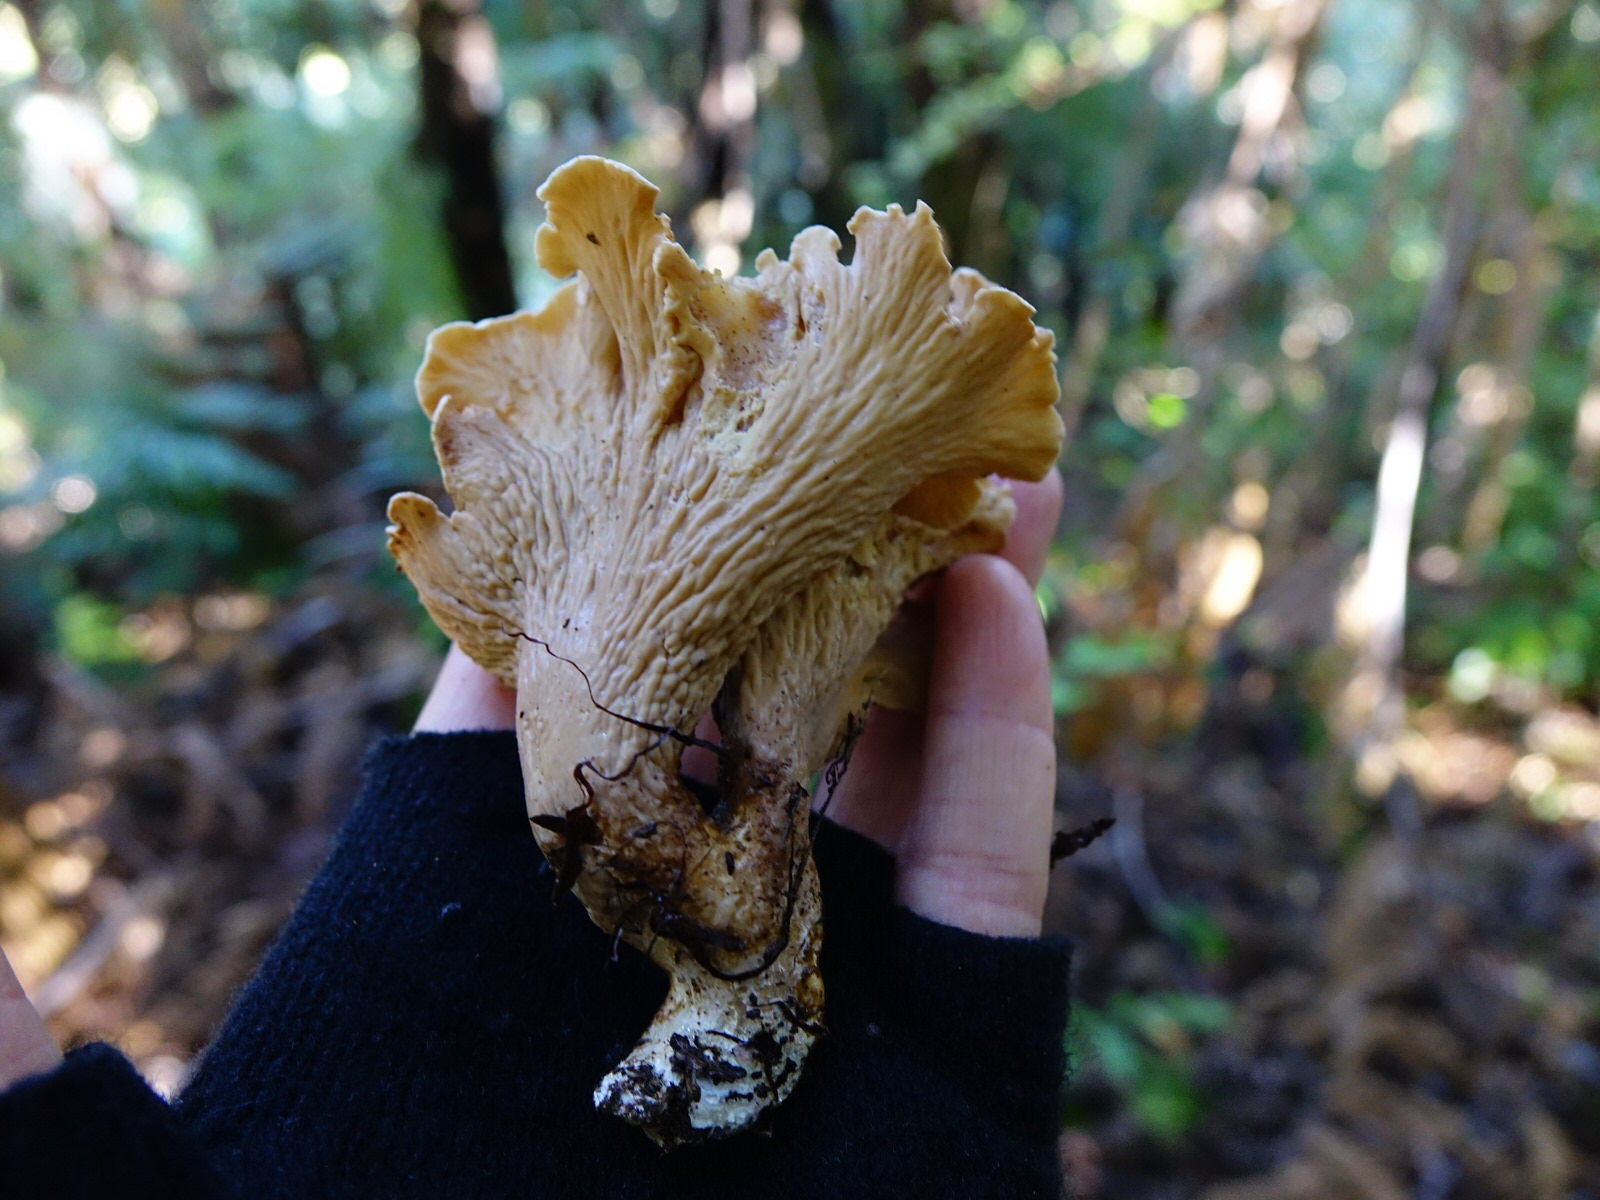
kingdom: Fungi
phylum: Basidiomycota
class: Agaricomycetes
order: Gomphales
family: Gomphaceae
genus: Gloeocantharellus
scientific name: Gloeocantharellus dingleyae
